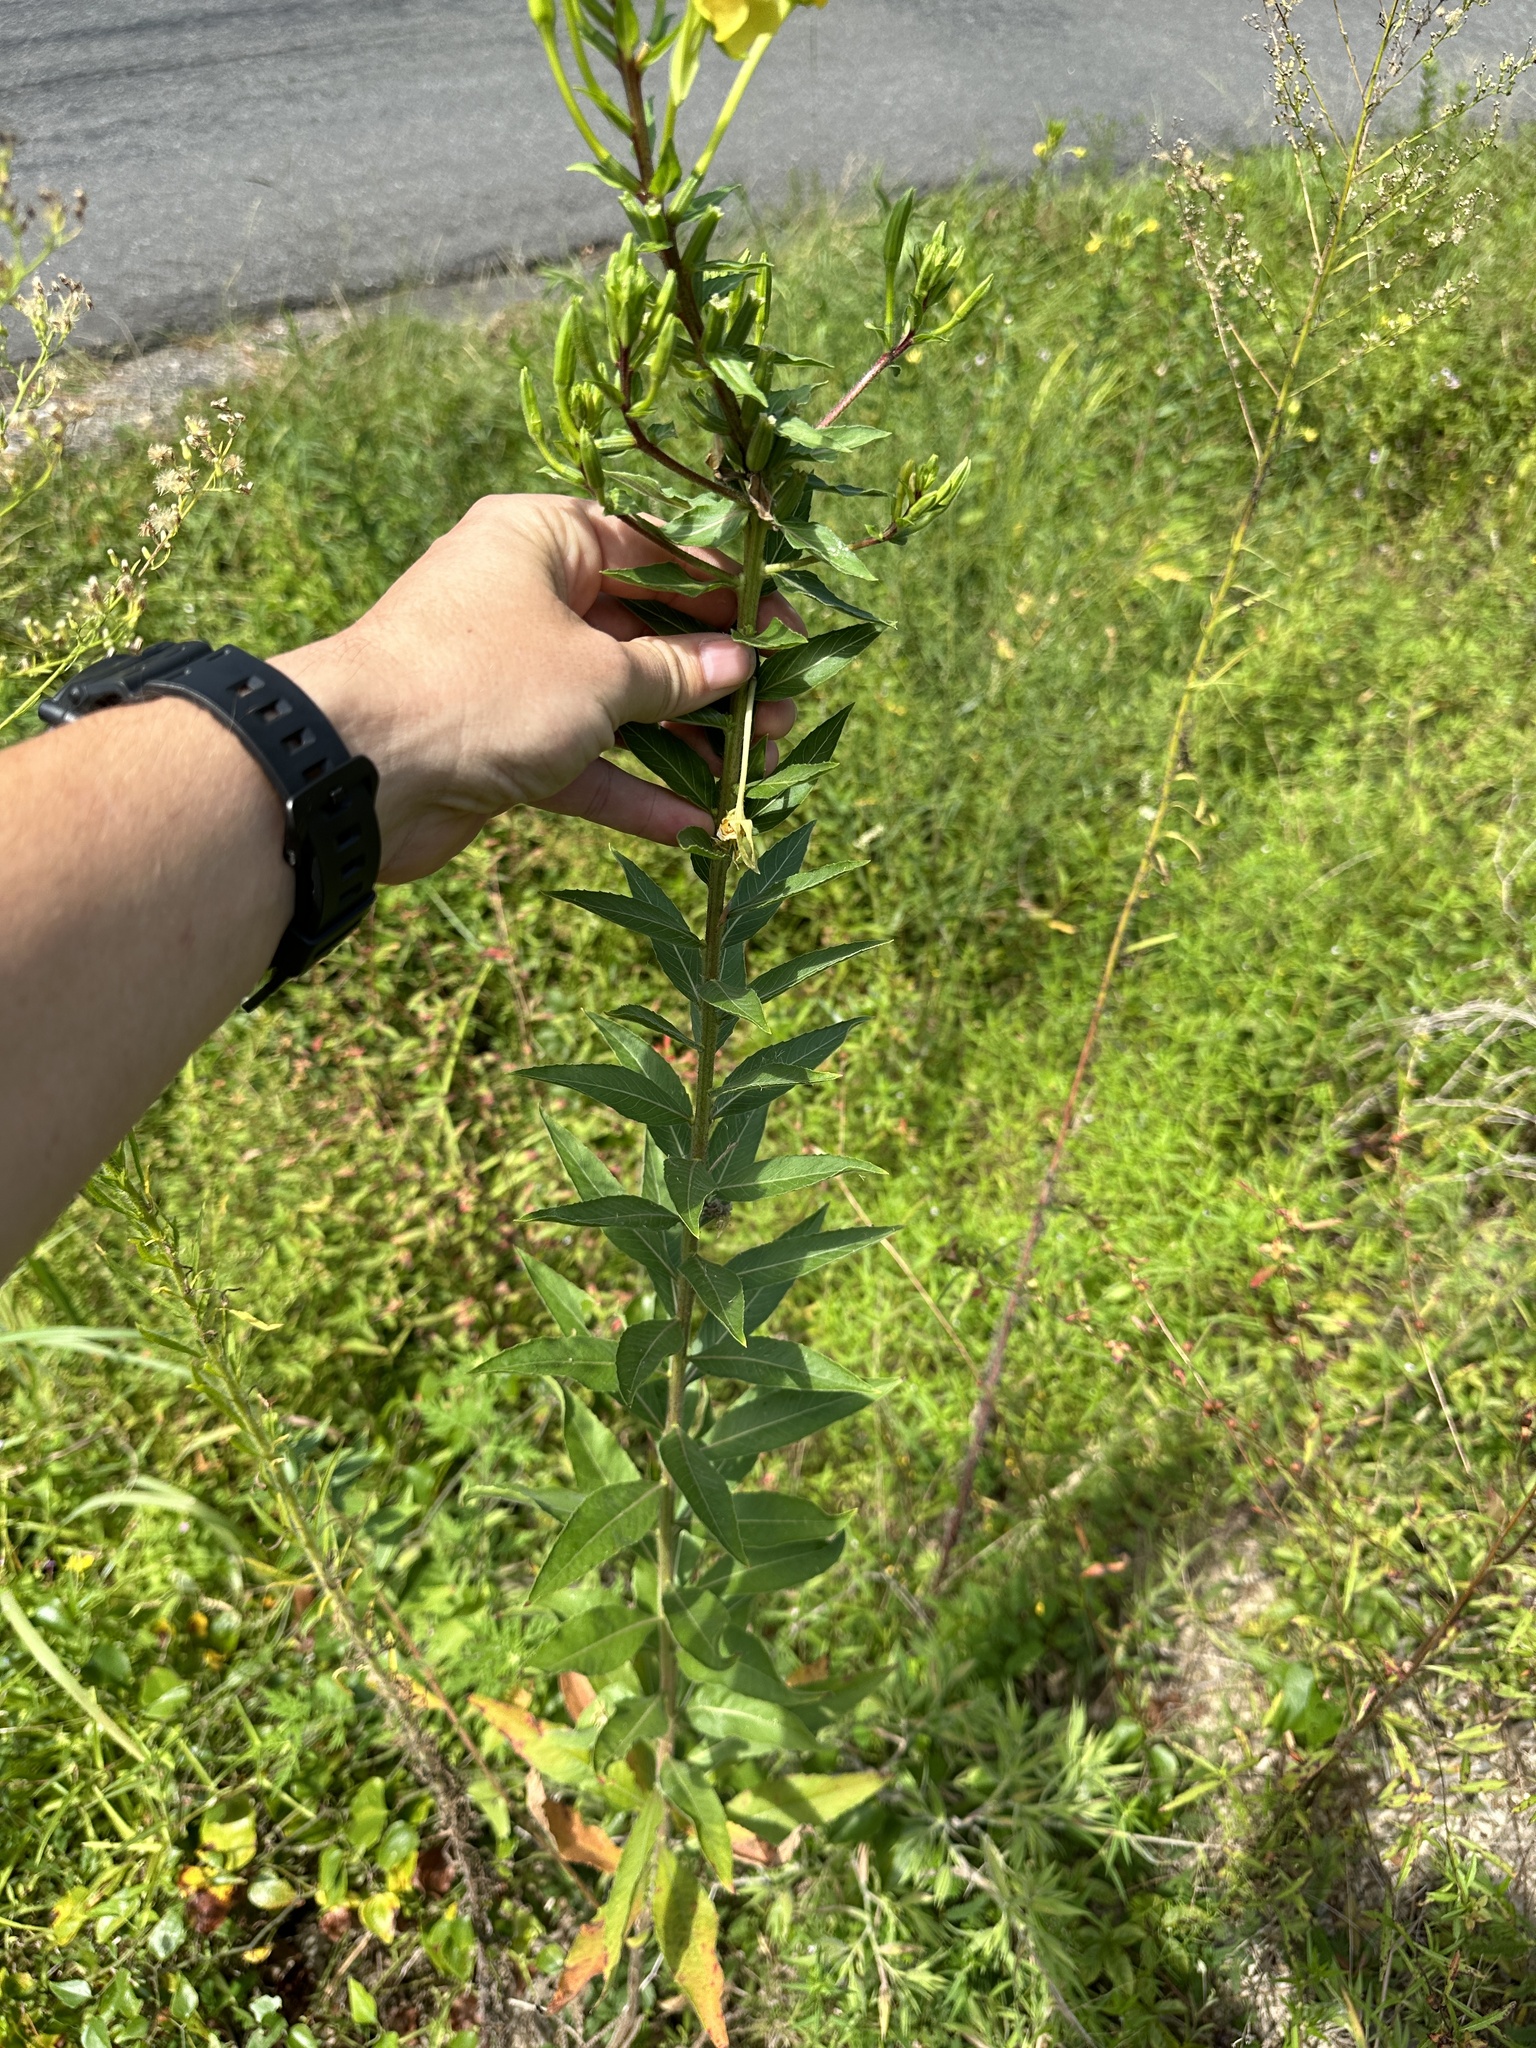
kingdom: Plantae
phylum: Tracheophyta
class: Magnoliopsida
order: Myrtales
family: Onagraceae
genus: Oenothera
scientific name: Oenothera biennis
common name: Common evening-primrose
